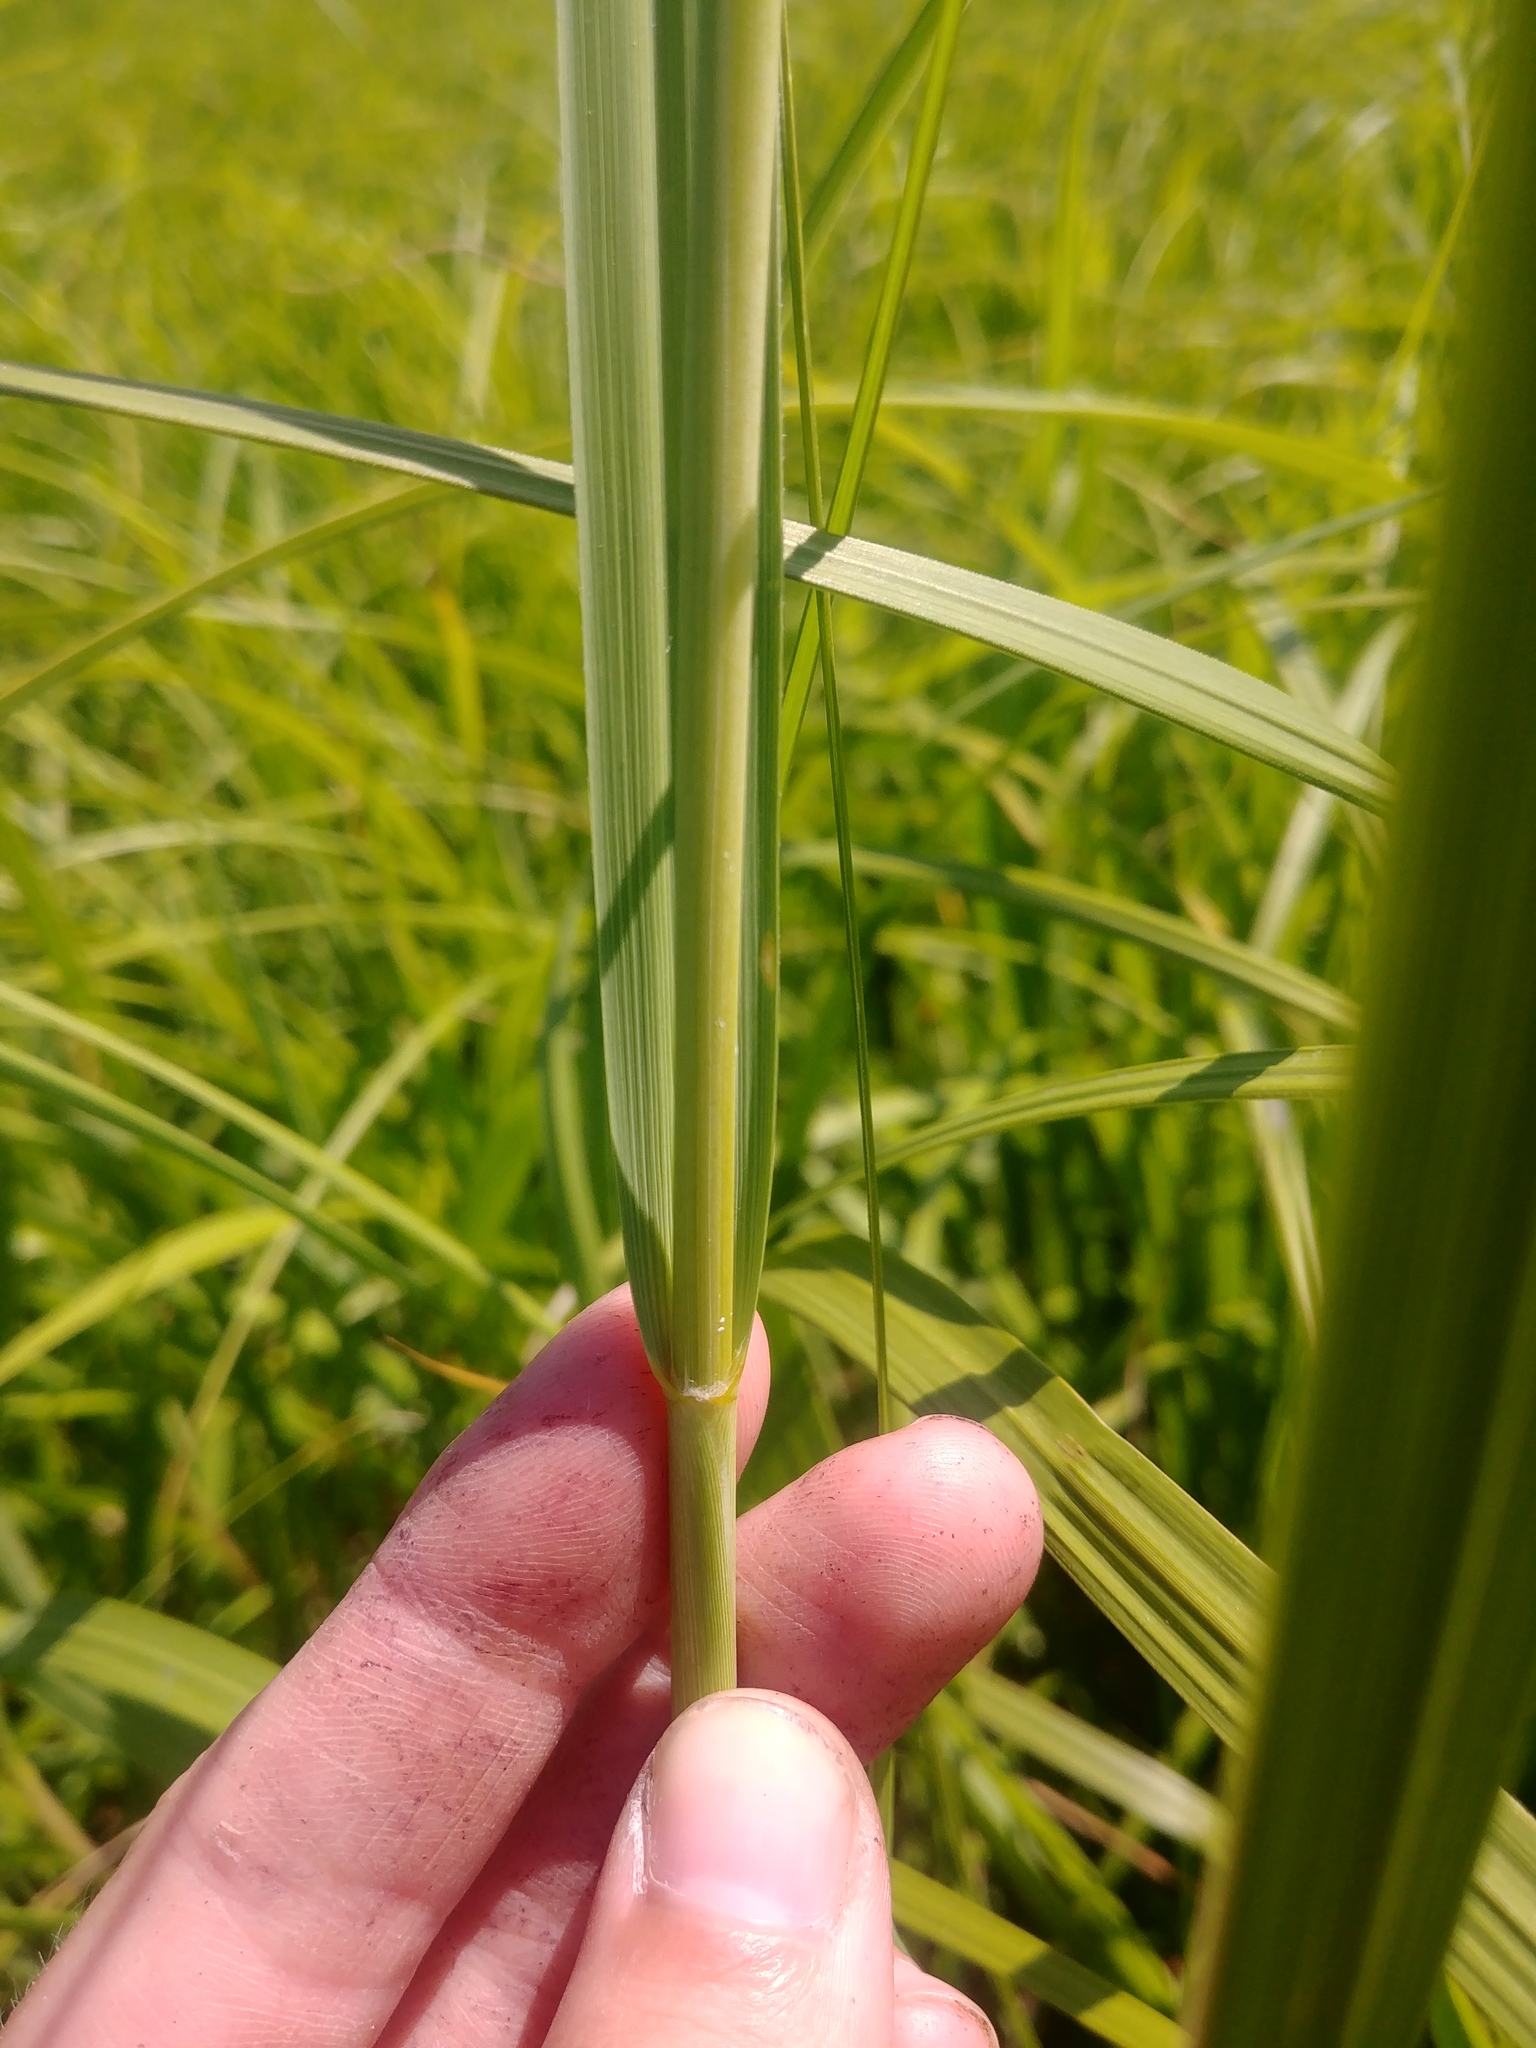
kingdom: Plantae
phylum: Tracheophyta
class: Liliopsida
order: Poales
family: Poaceae
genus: Sporobolus
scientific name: Sporobolus michauxianus
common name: Freshwater cordgrass
